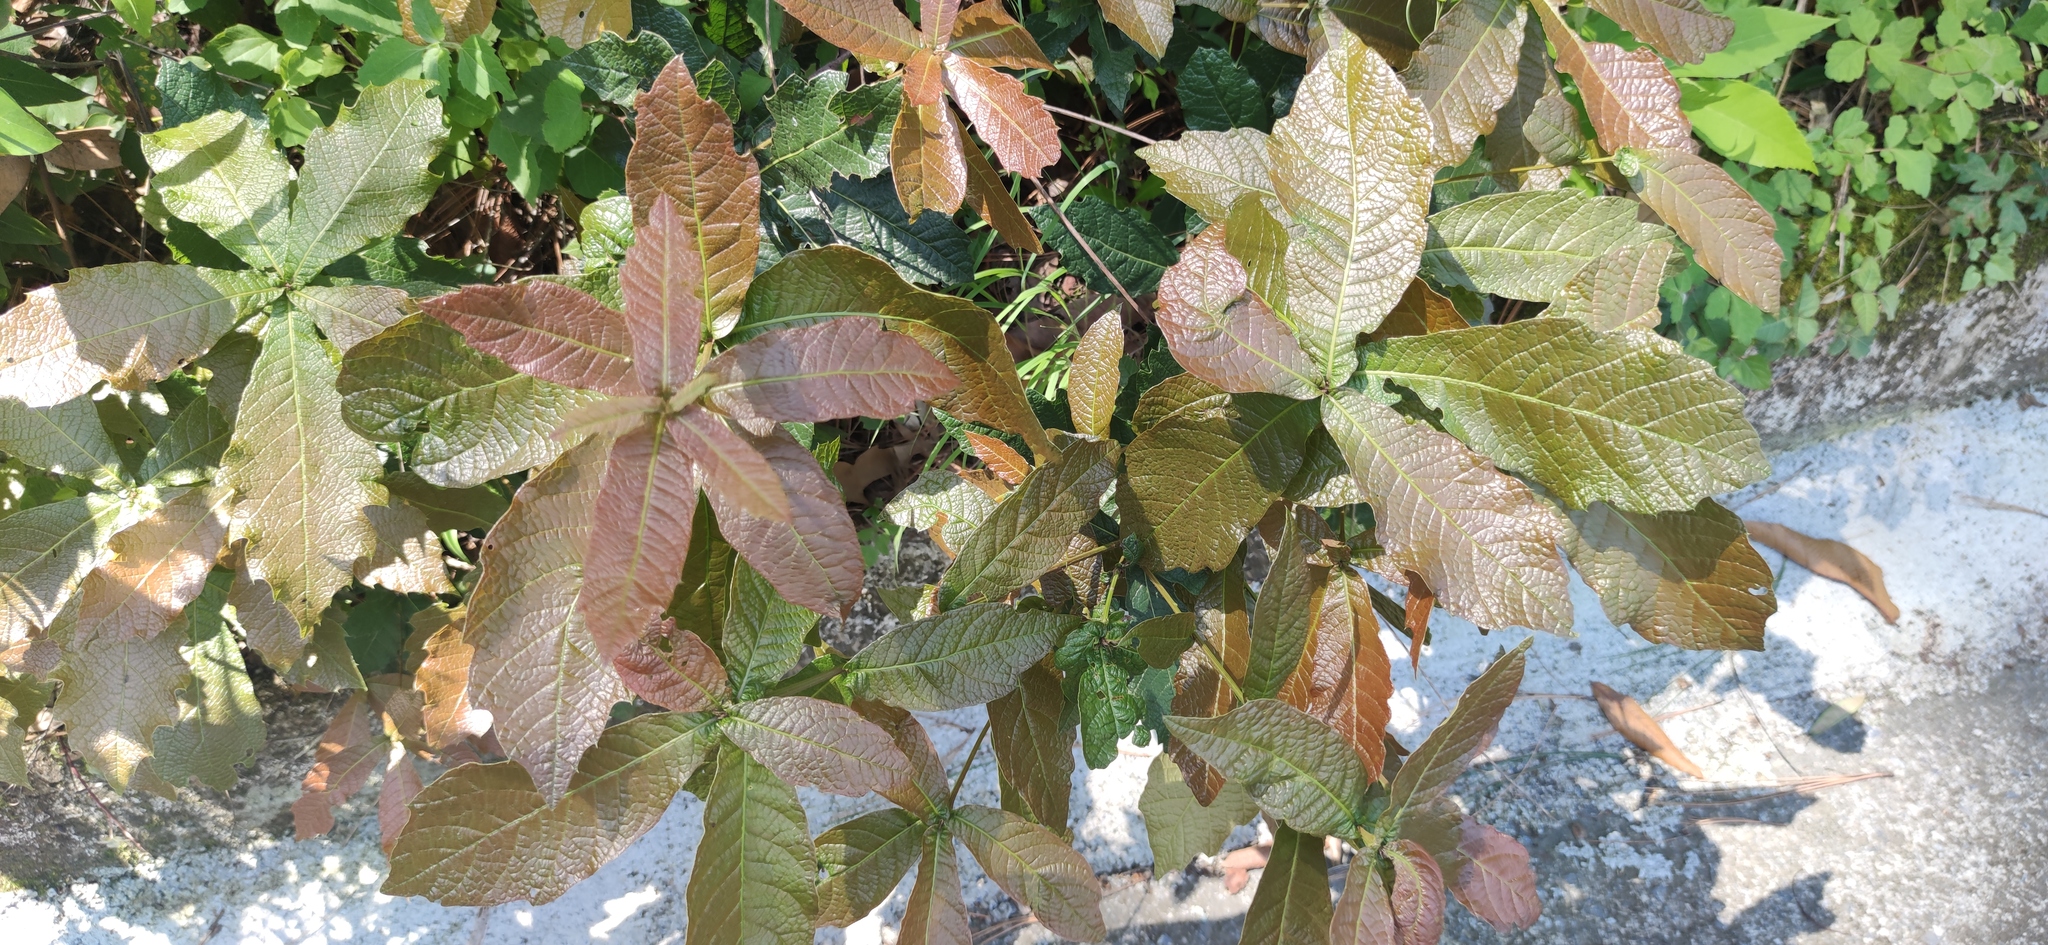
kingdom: Plantae
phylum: Tracheophyta
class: Magnoliopsida
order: Fagales
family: Fagaceae
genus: Quercus
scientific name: Quercus rysophylla
